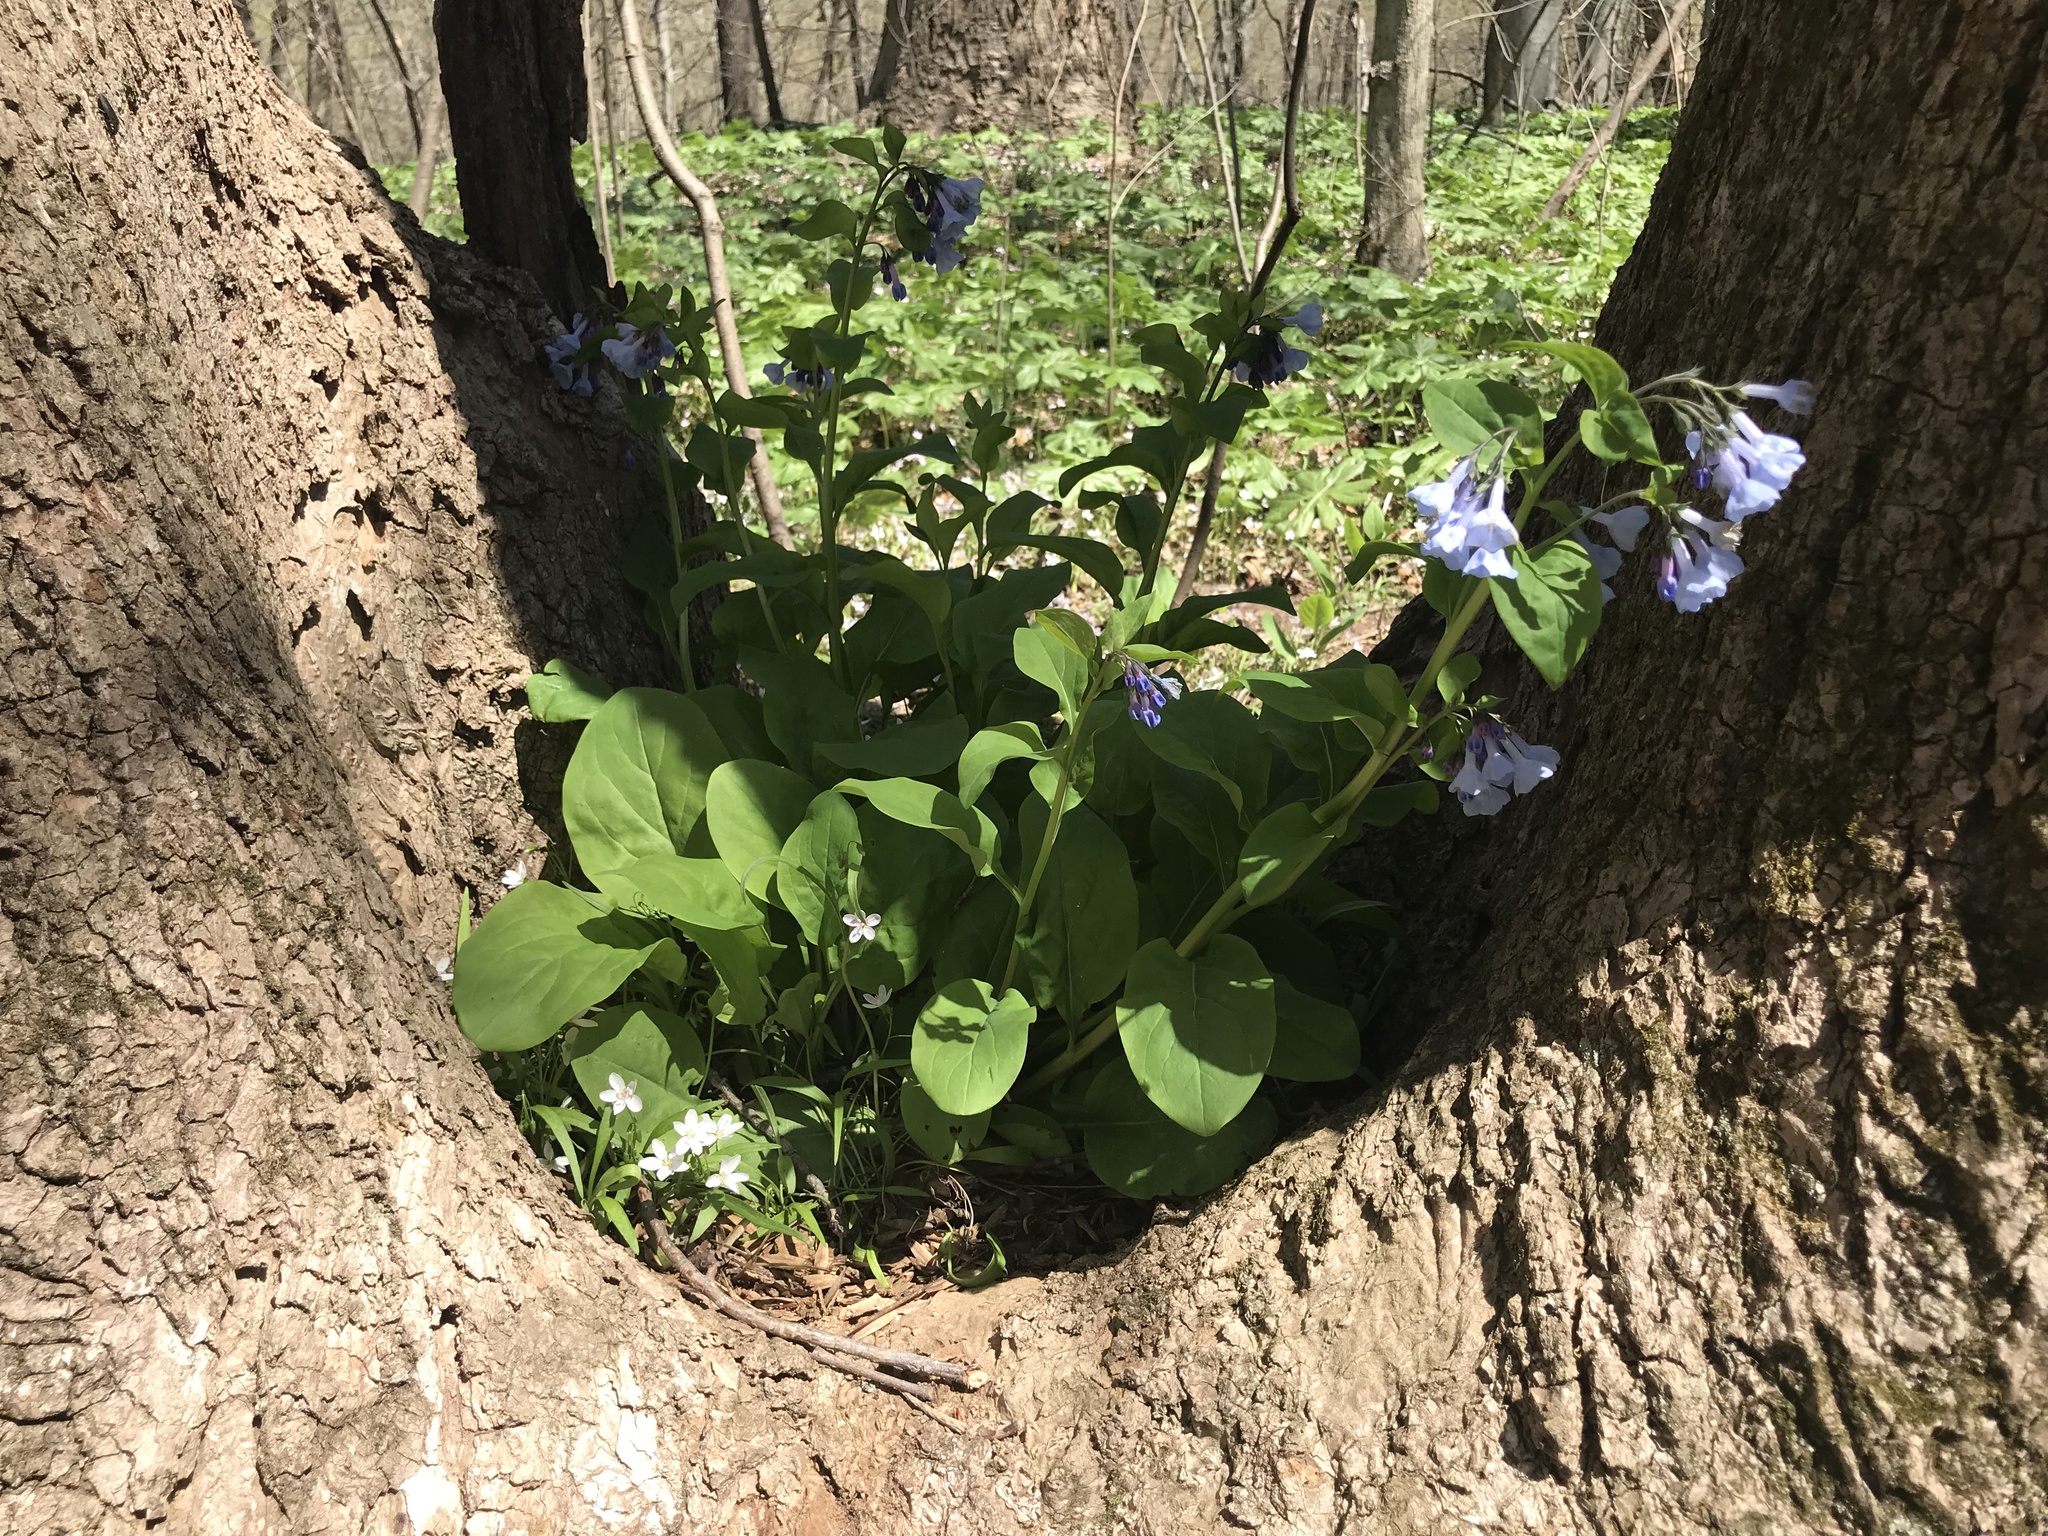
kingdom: Plantae
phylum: Tracheophyta
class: Magnoliopsida
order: Boraginales
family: Boraginaceae
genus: Mertensia
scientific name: Mertensia virginica
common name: Virginia bluebells
